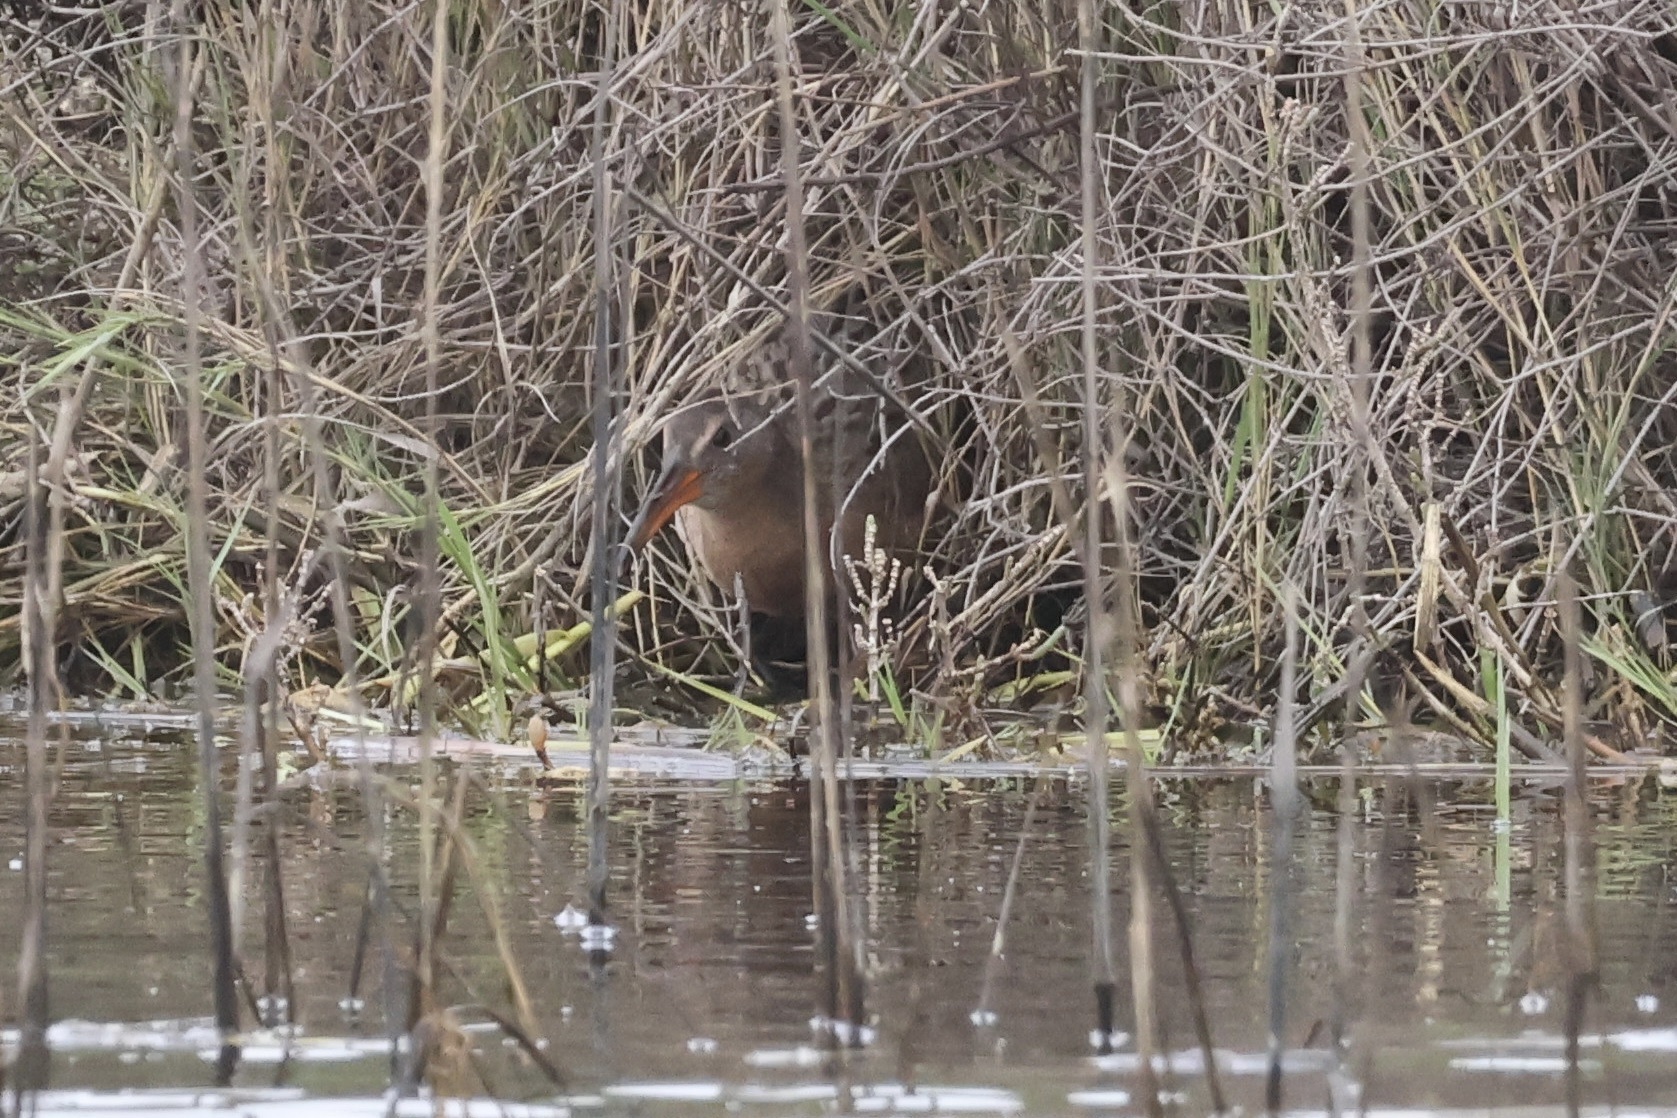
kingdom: Animalia
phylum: Chordata
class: Aves
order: Gruiformes
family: Rallidae
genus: Rallus
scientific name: Rallus obsoletus
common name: Ridgway's rail
